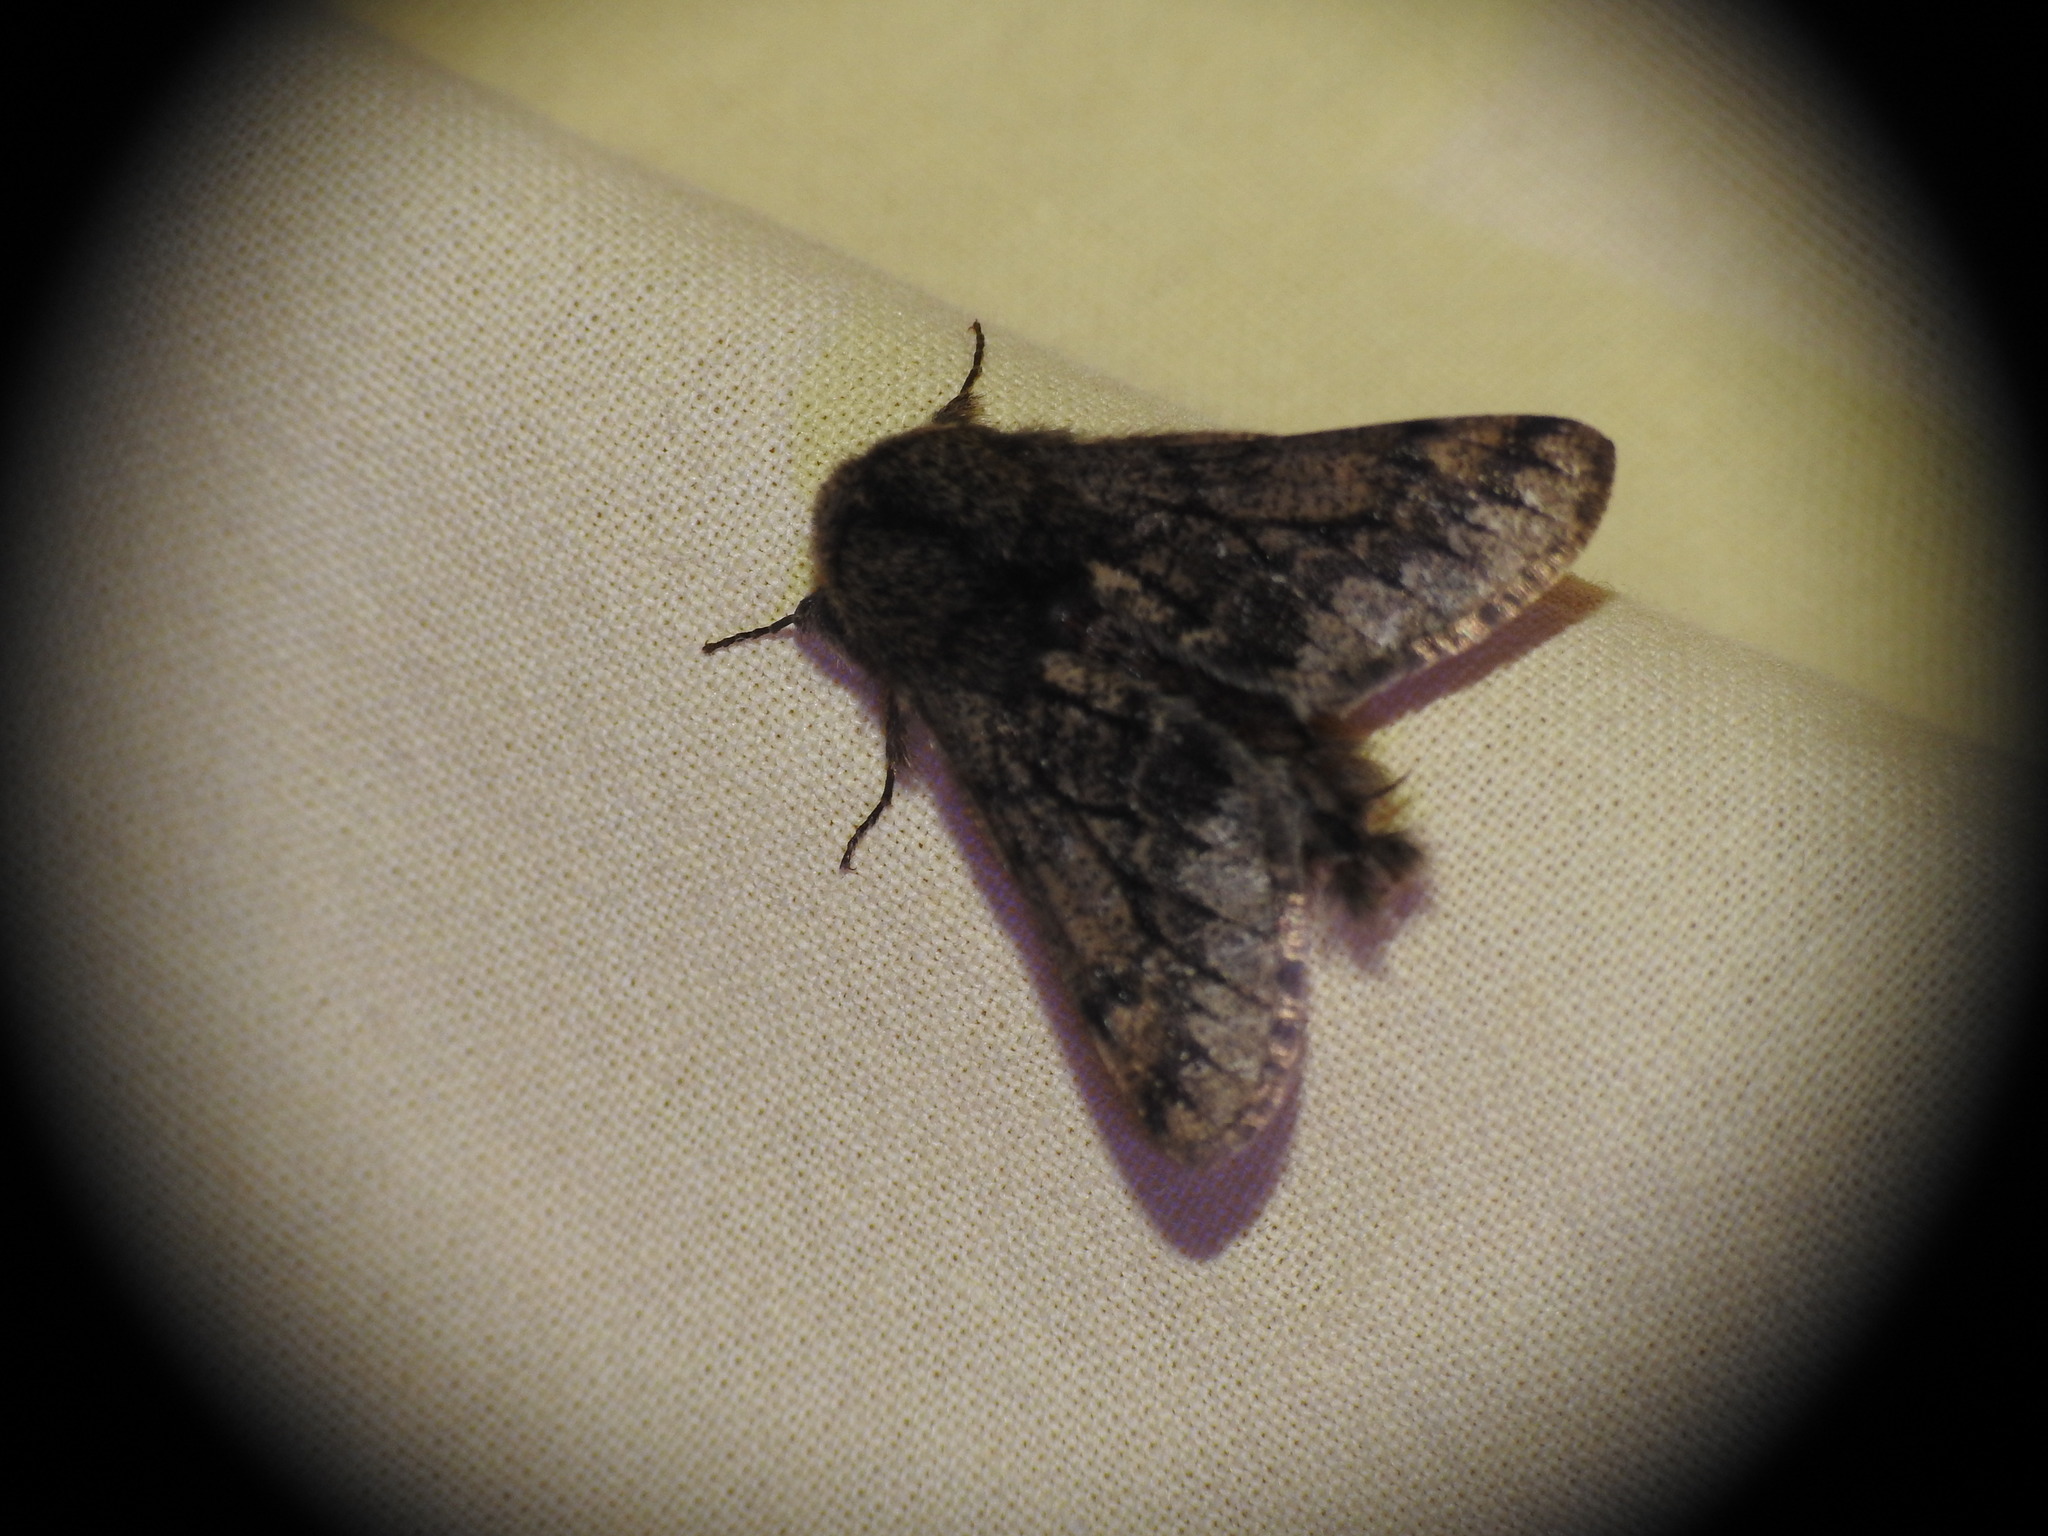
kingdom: Animalia
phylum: Arthropoda
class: Insecta
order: Lepidoptera
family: Geometridae
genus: Apocheima
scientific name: Apocheima hispidaria
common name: Small brindled beauty
